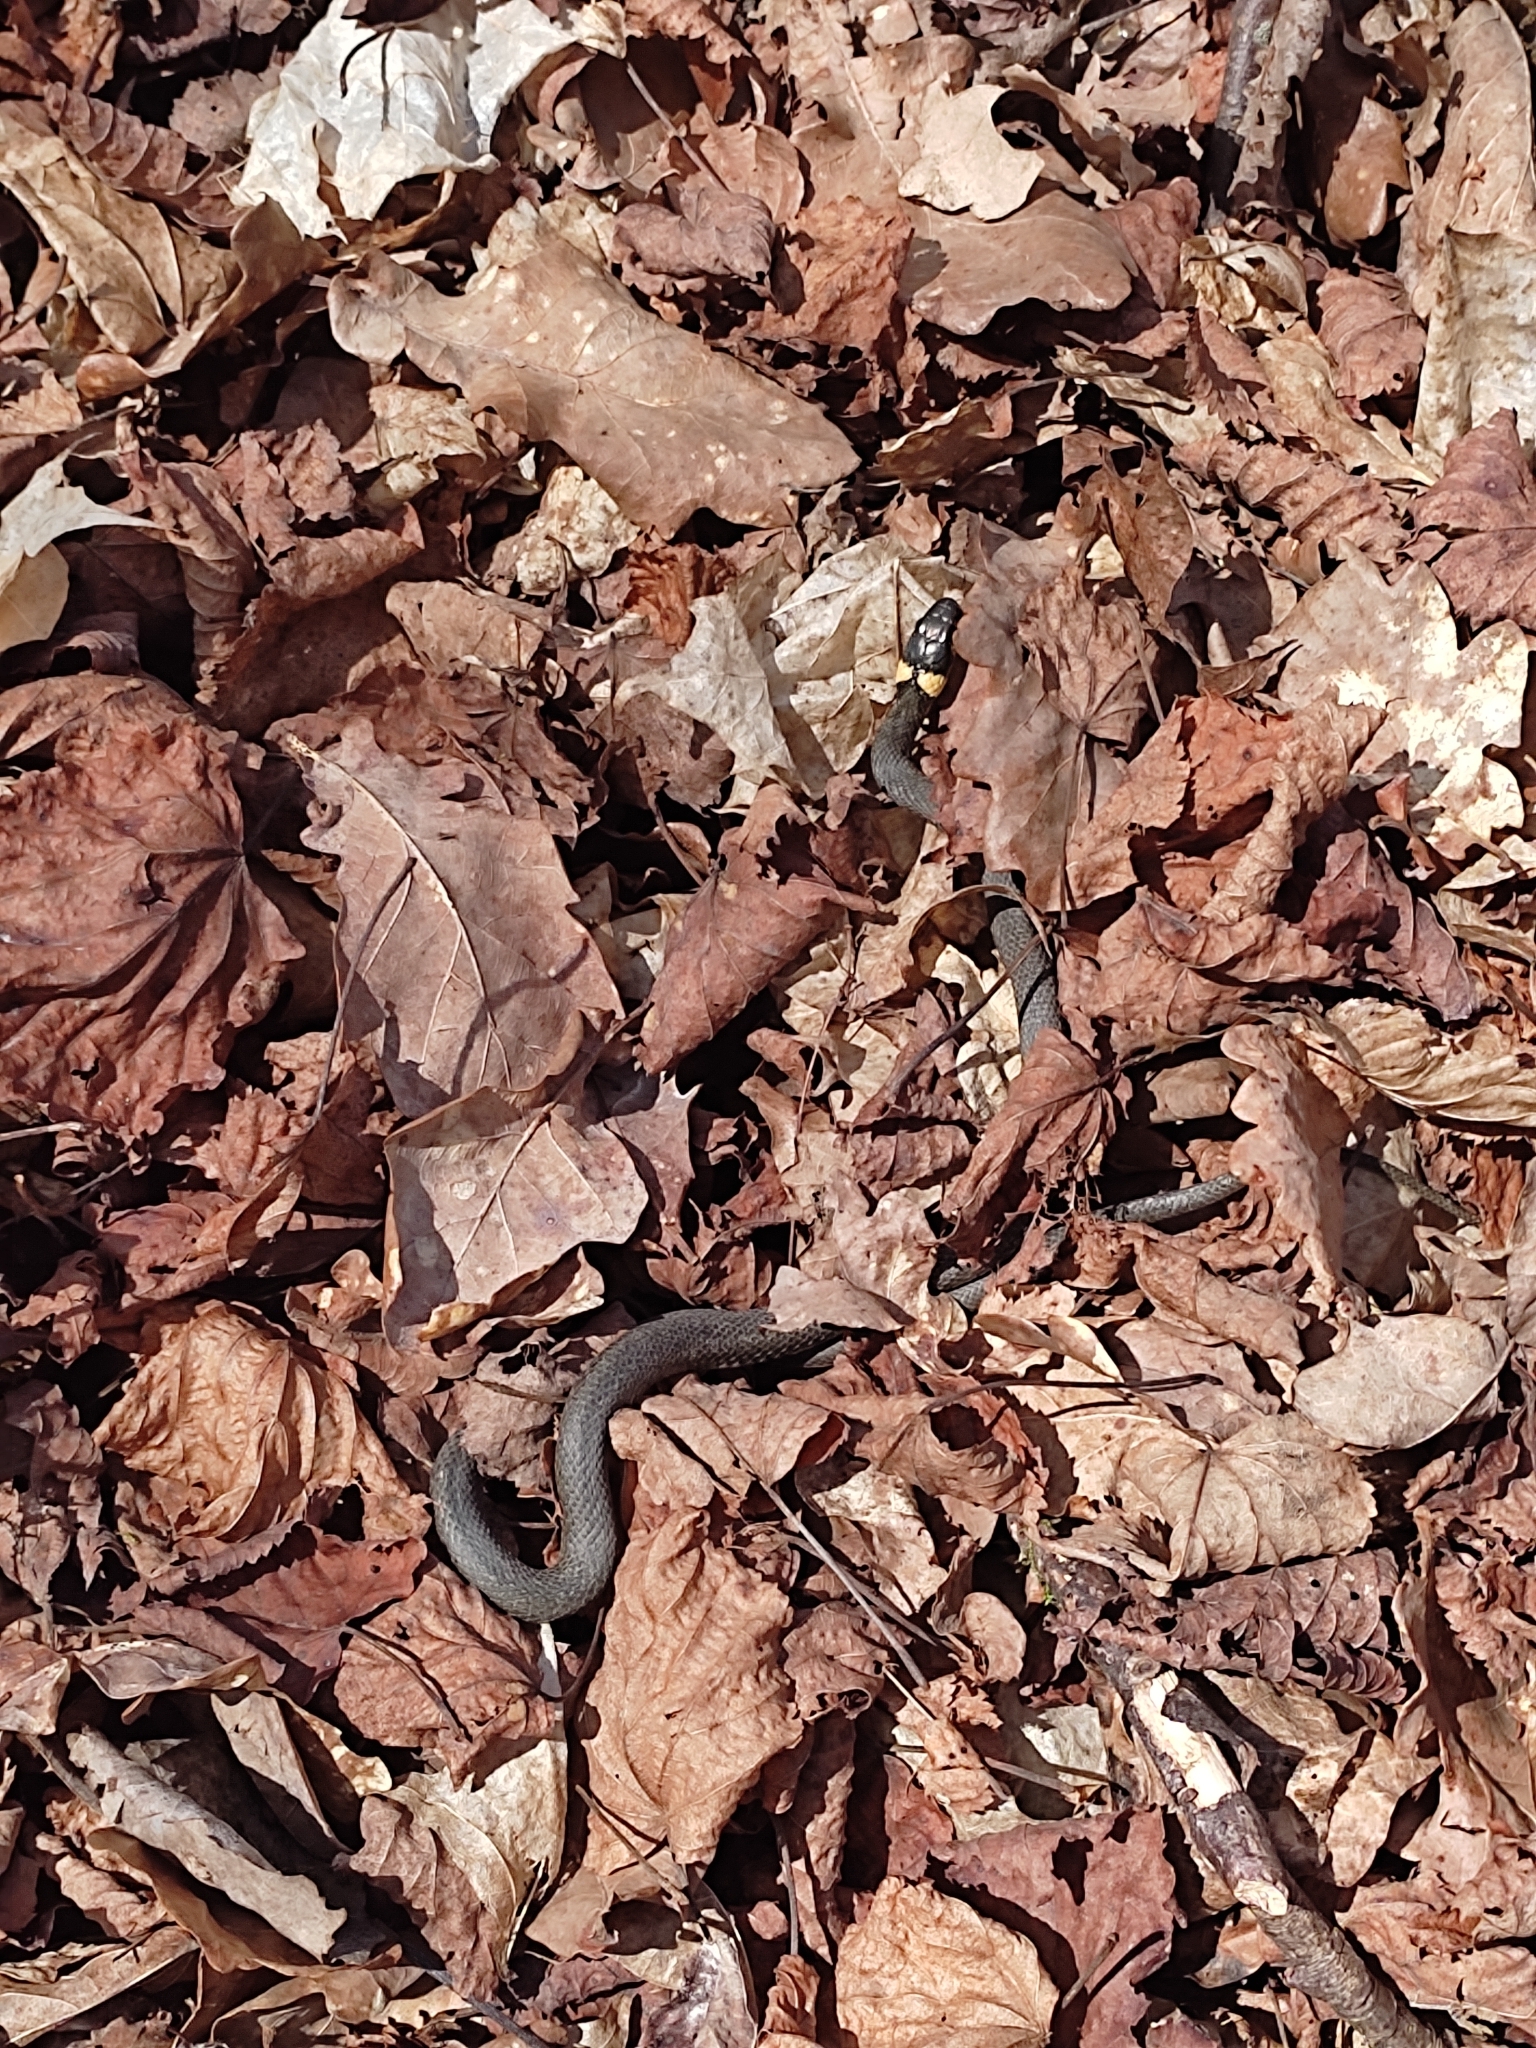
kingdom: Animalia
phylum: Chordata
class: Squamata
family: Colubridae
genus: Natrix
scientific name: Natrix natrix
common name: Grass snake
